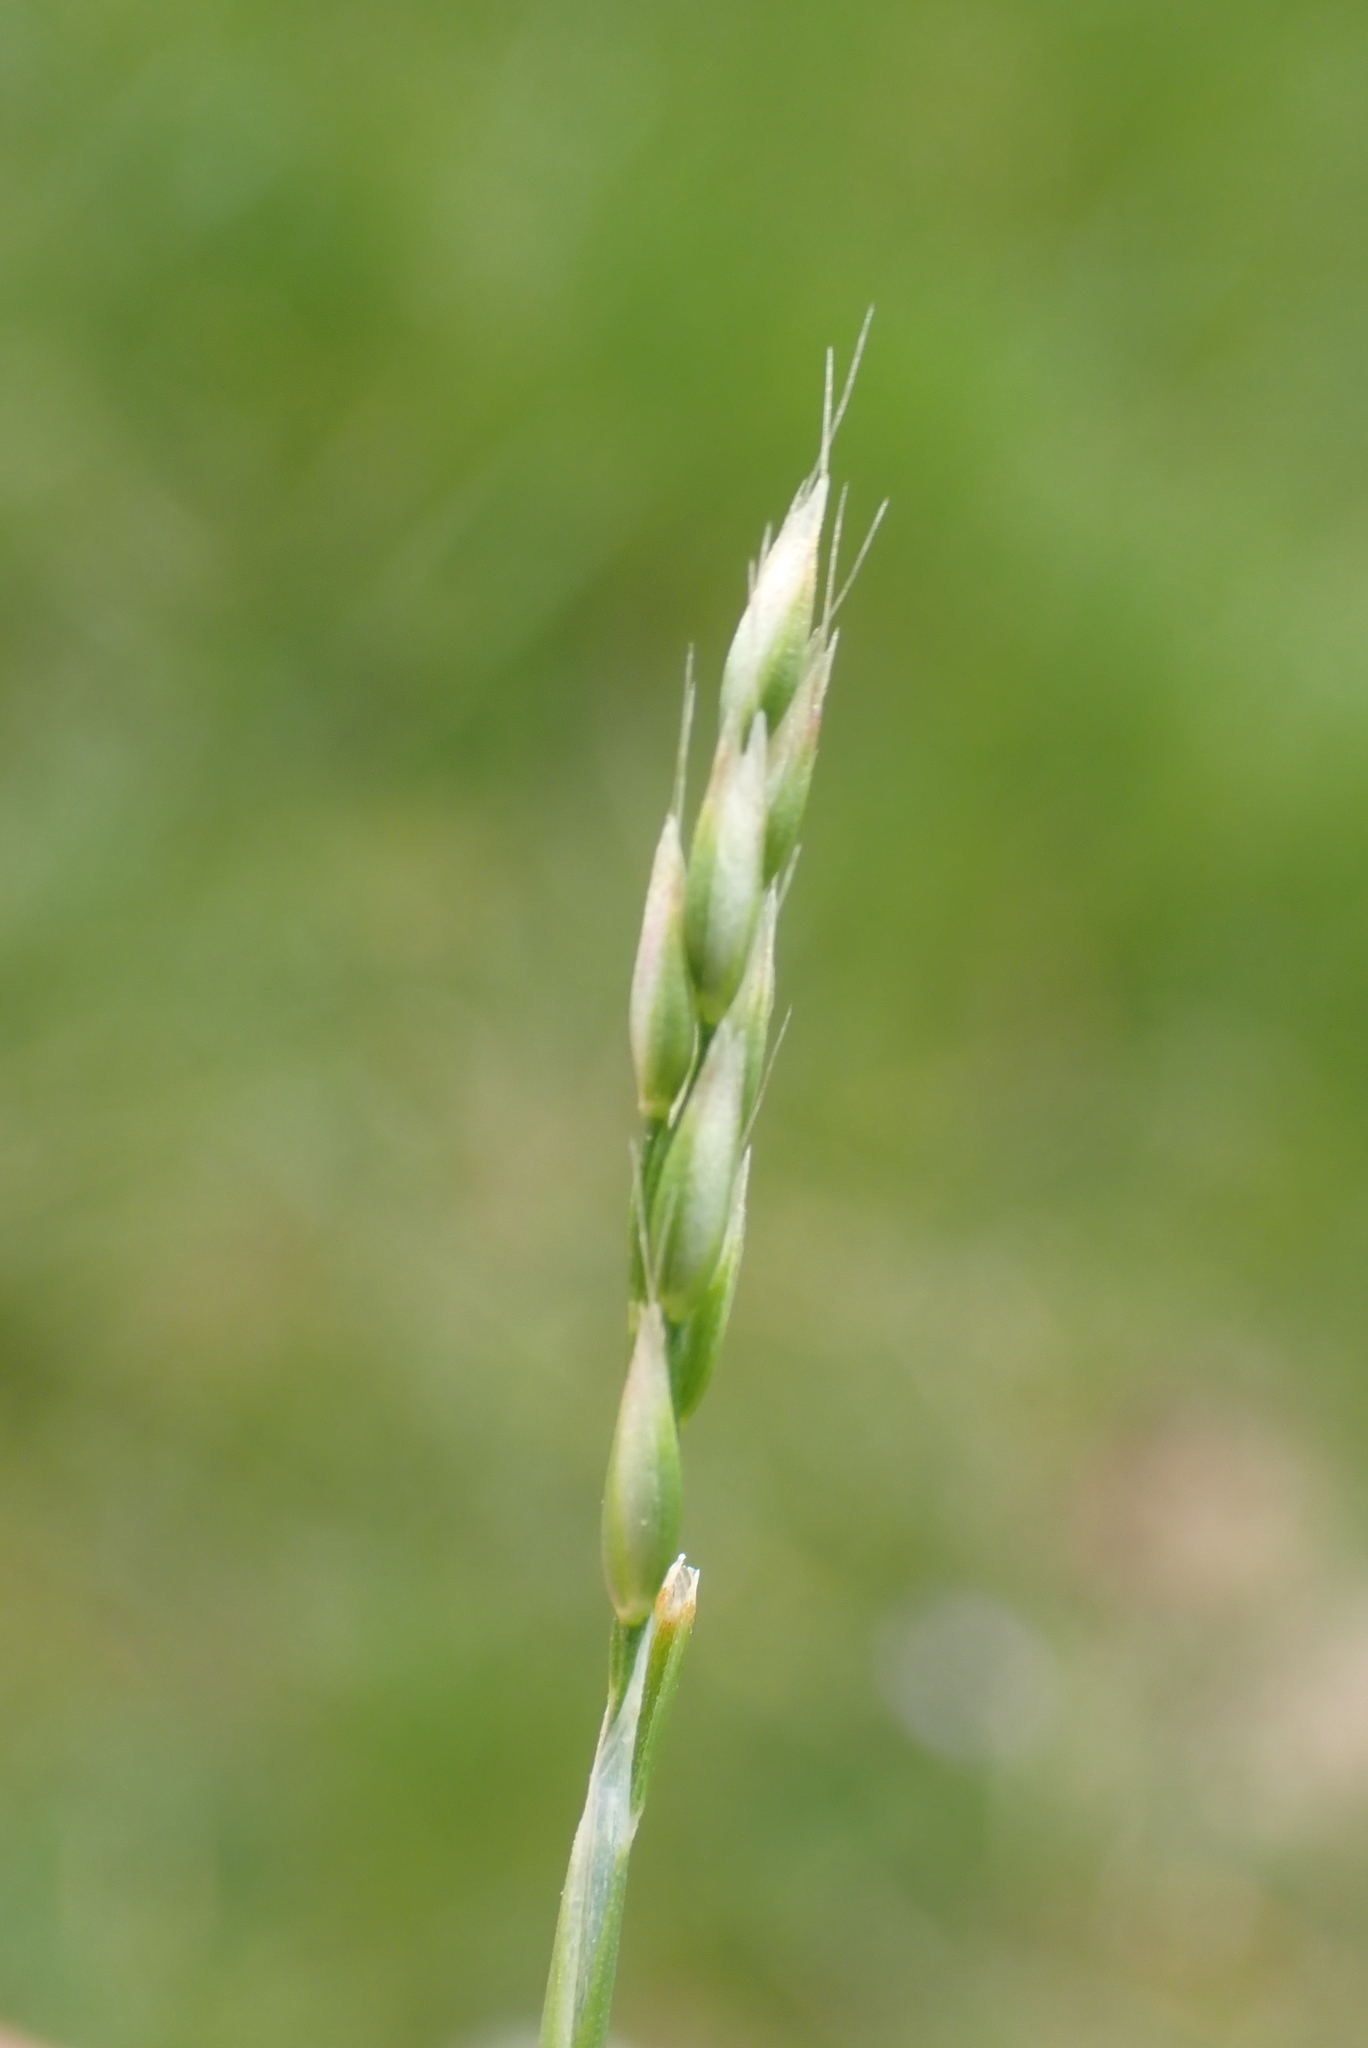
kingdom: Plantae
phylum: Tracheophyta
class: Liliopsida
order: Poales
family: Poaceae
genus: Aira
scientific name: Aira praecox
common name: Early hair-grass
